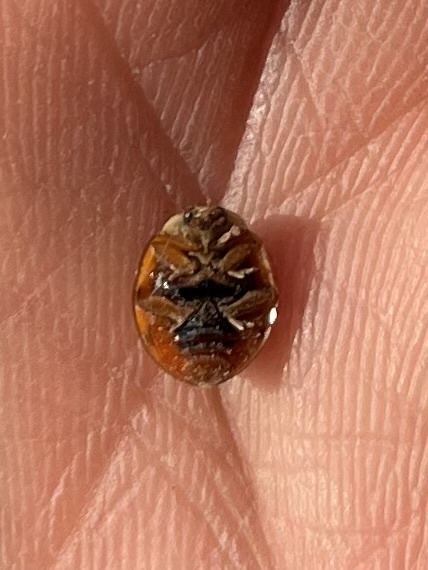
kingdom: Animalia
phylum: Arthropoda
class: Insecta
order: Coleoptera
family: Coccinellidae
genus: Harmonia
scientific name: Harmonia axyridis
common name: Harlequin ladybird
